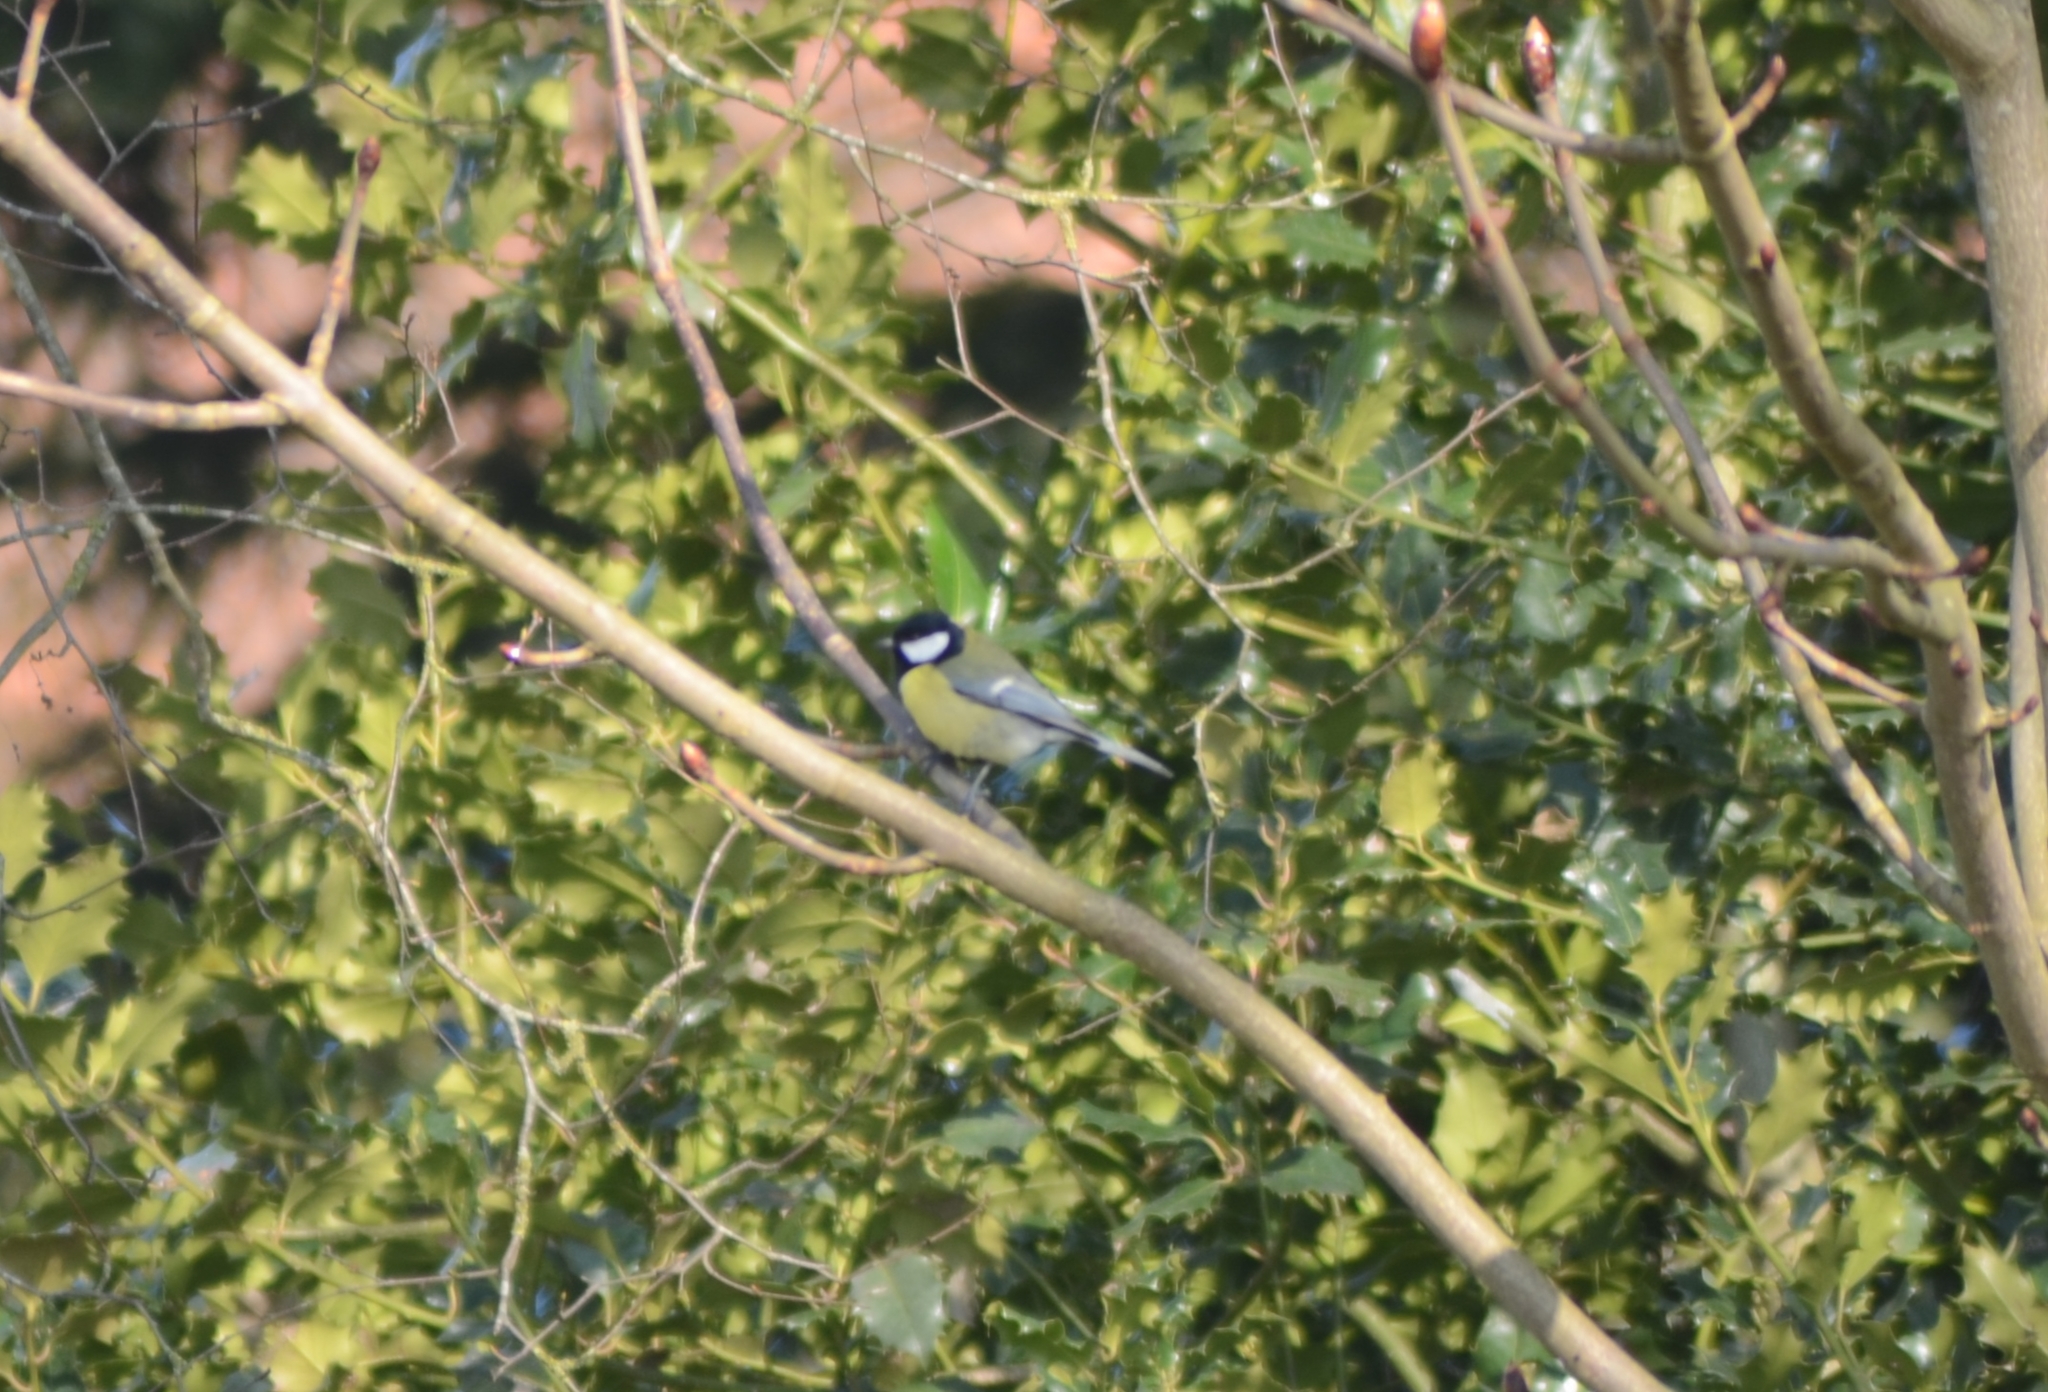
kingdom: Animalia
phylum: Chordata
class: Aves
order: Passeriformes
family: Paridae
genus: Parus
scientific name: Parus major
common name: Great tit
